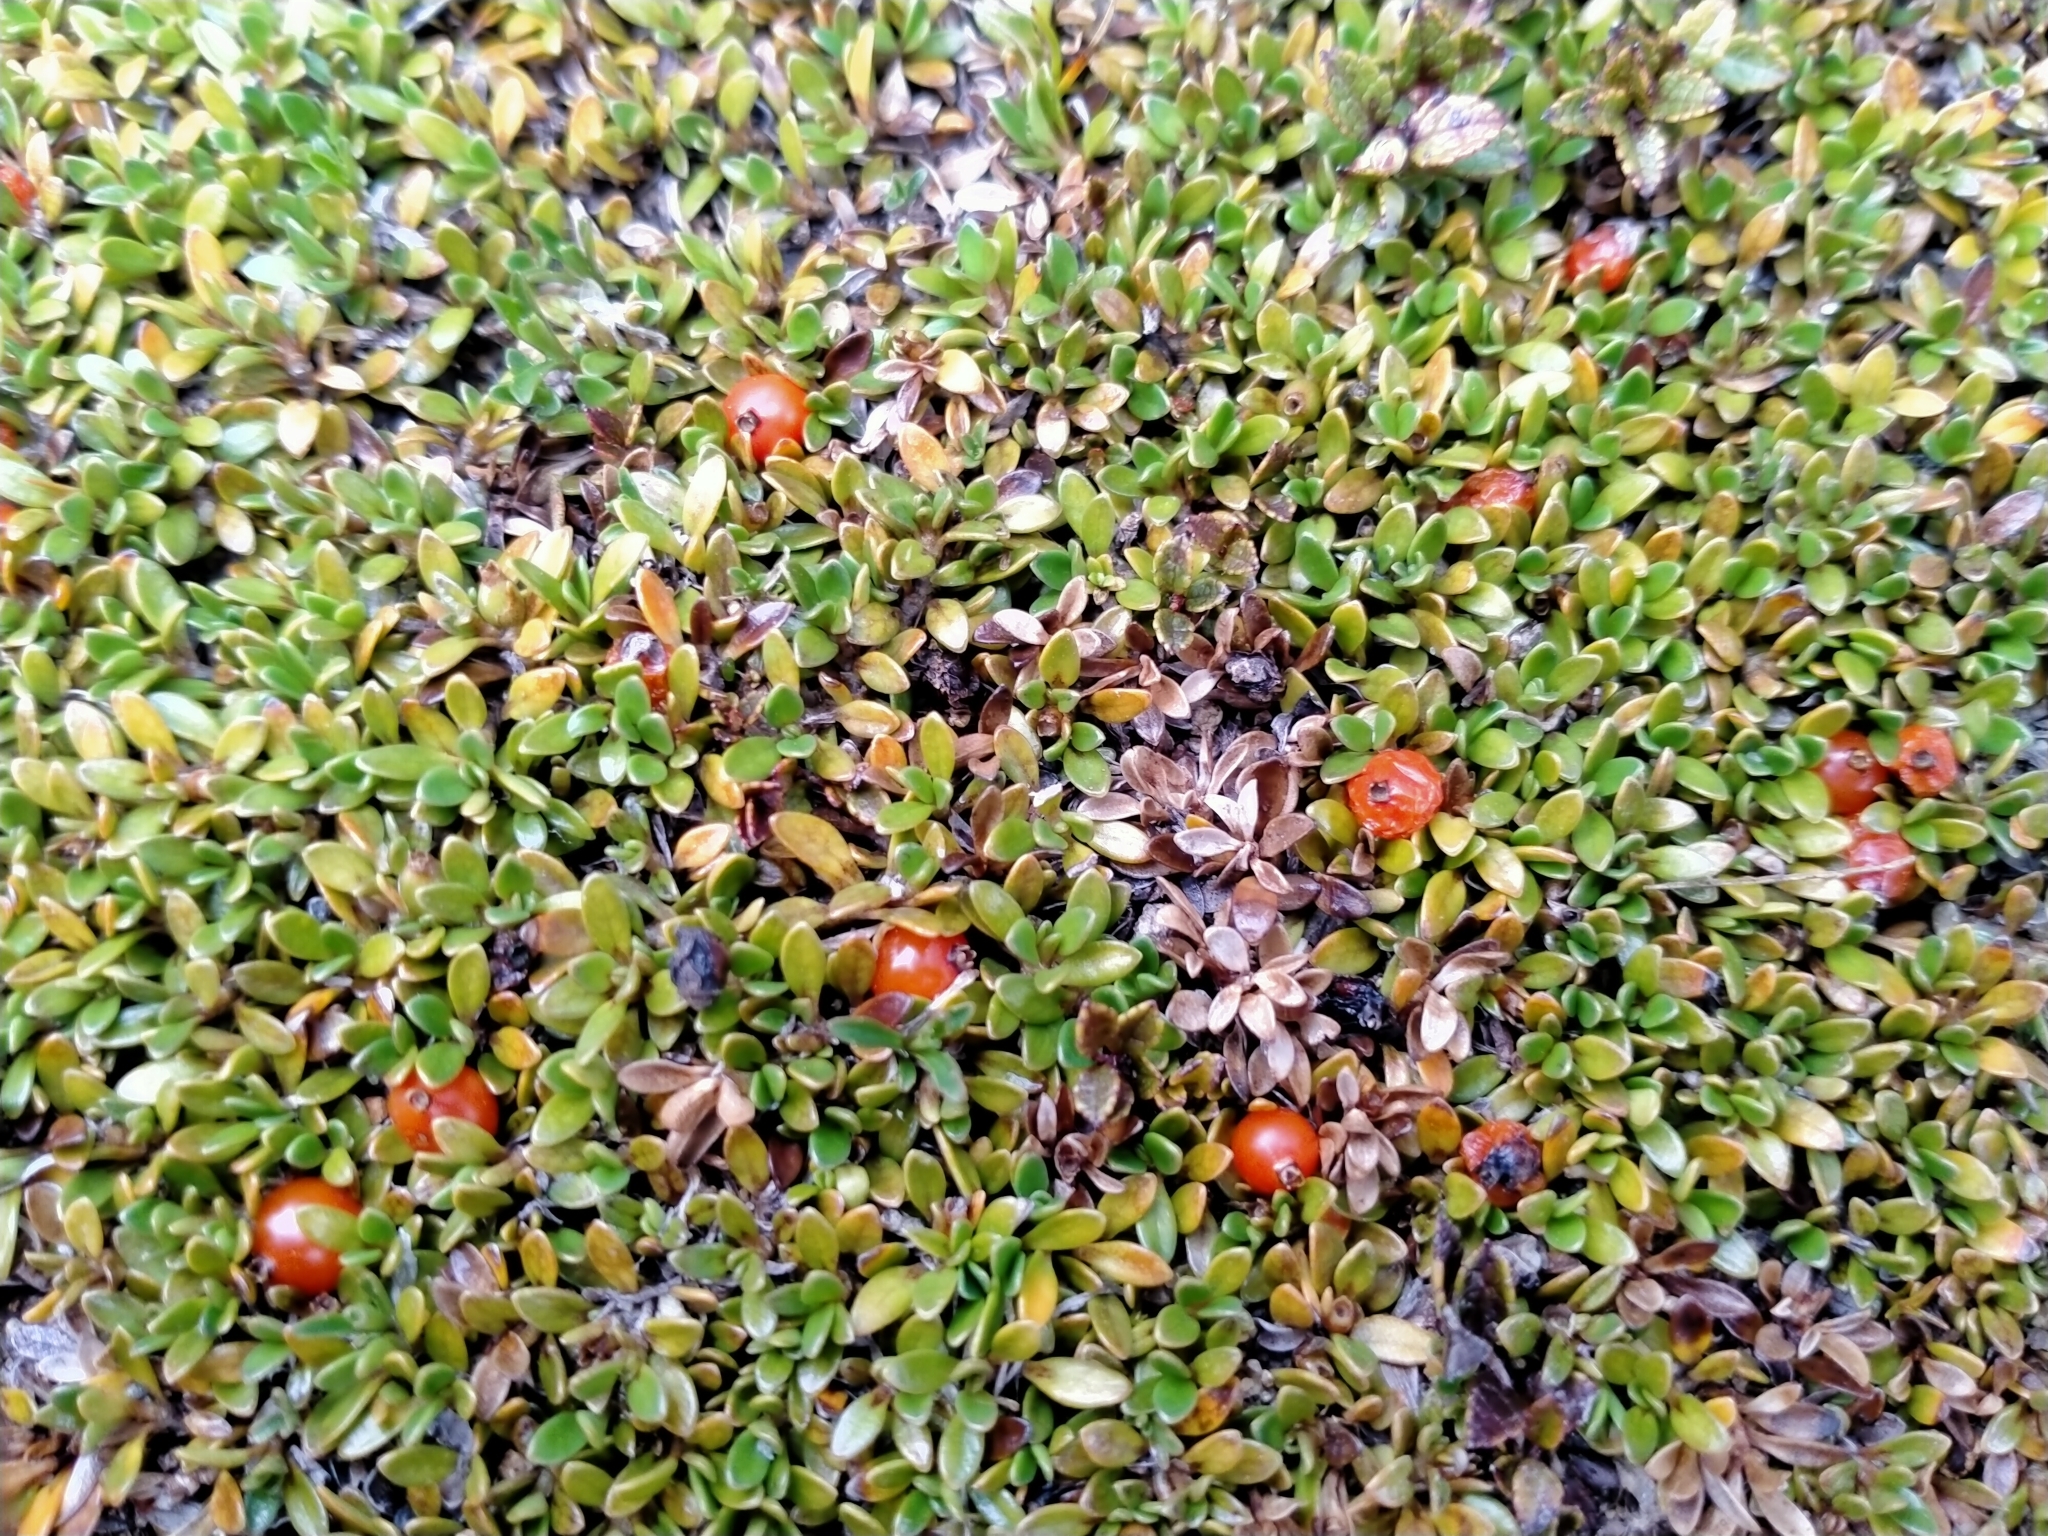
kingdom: Plantae
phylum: Tracheophyta
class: Magnoliopsida
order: Gentianales
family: Rubiaceae
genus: Coprosma
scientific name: Coprosma perpusilla
